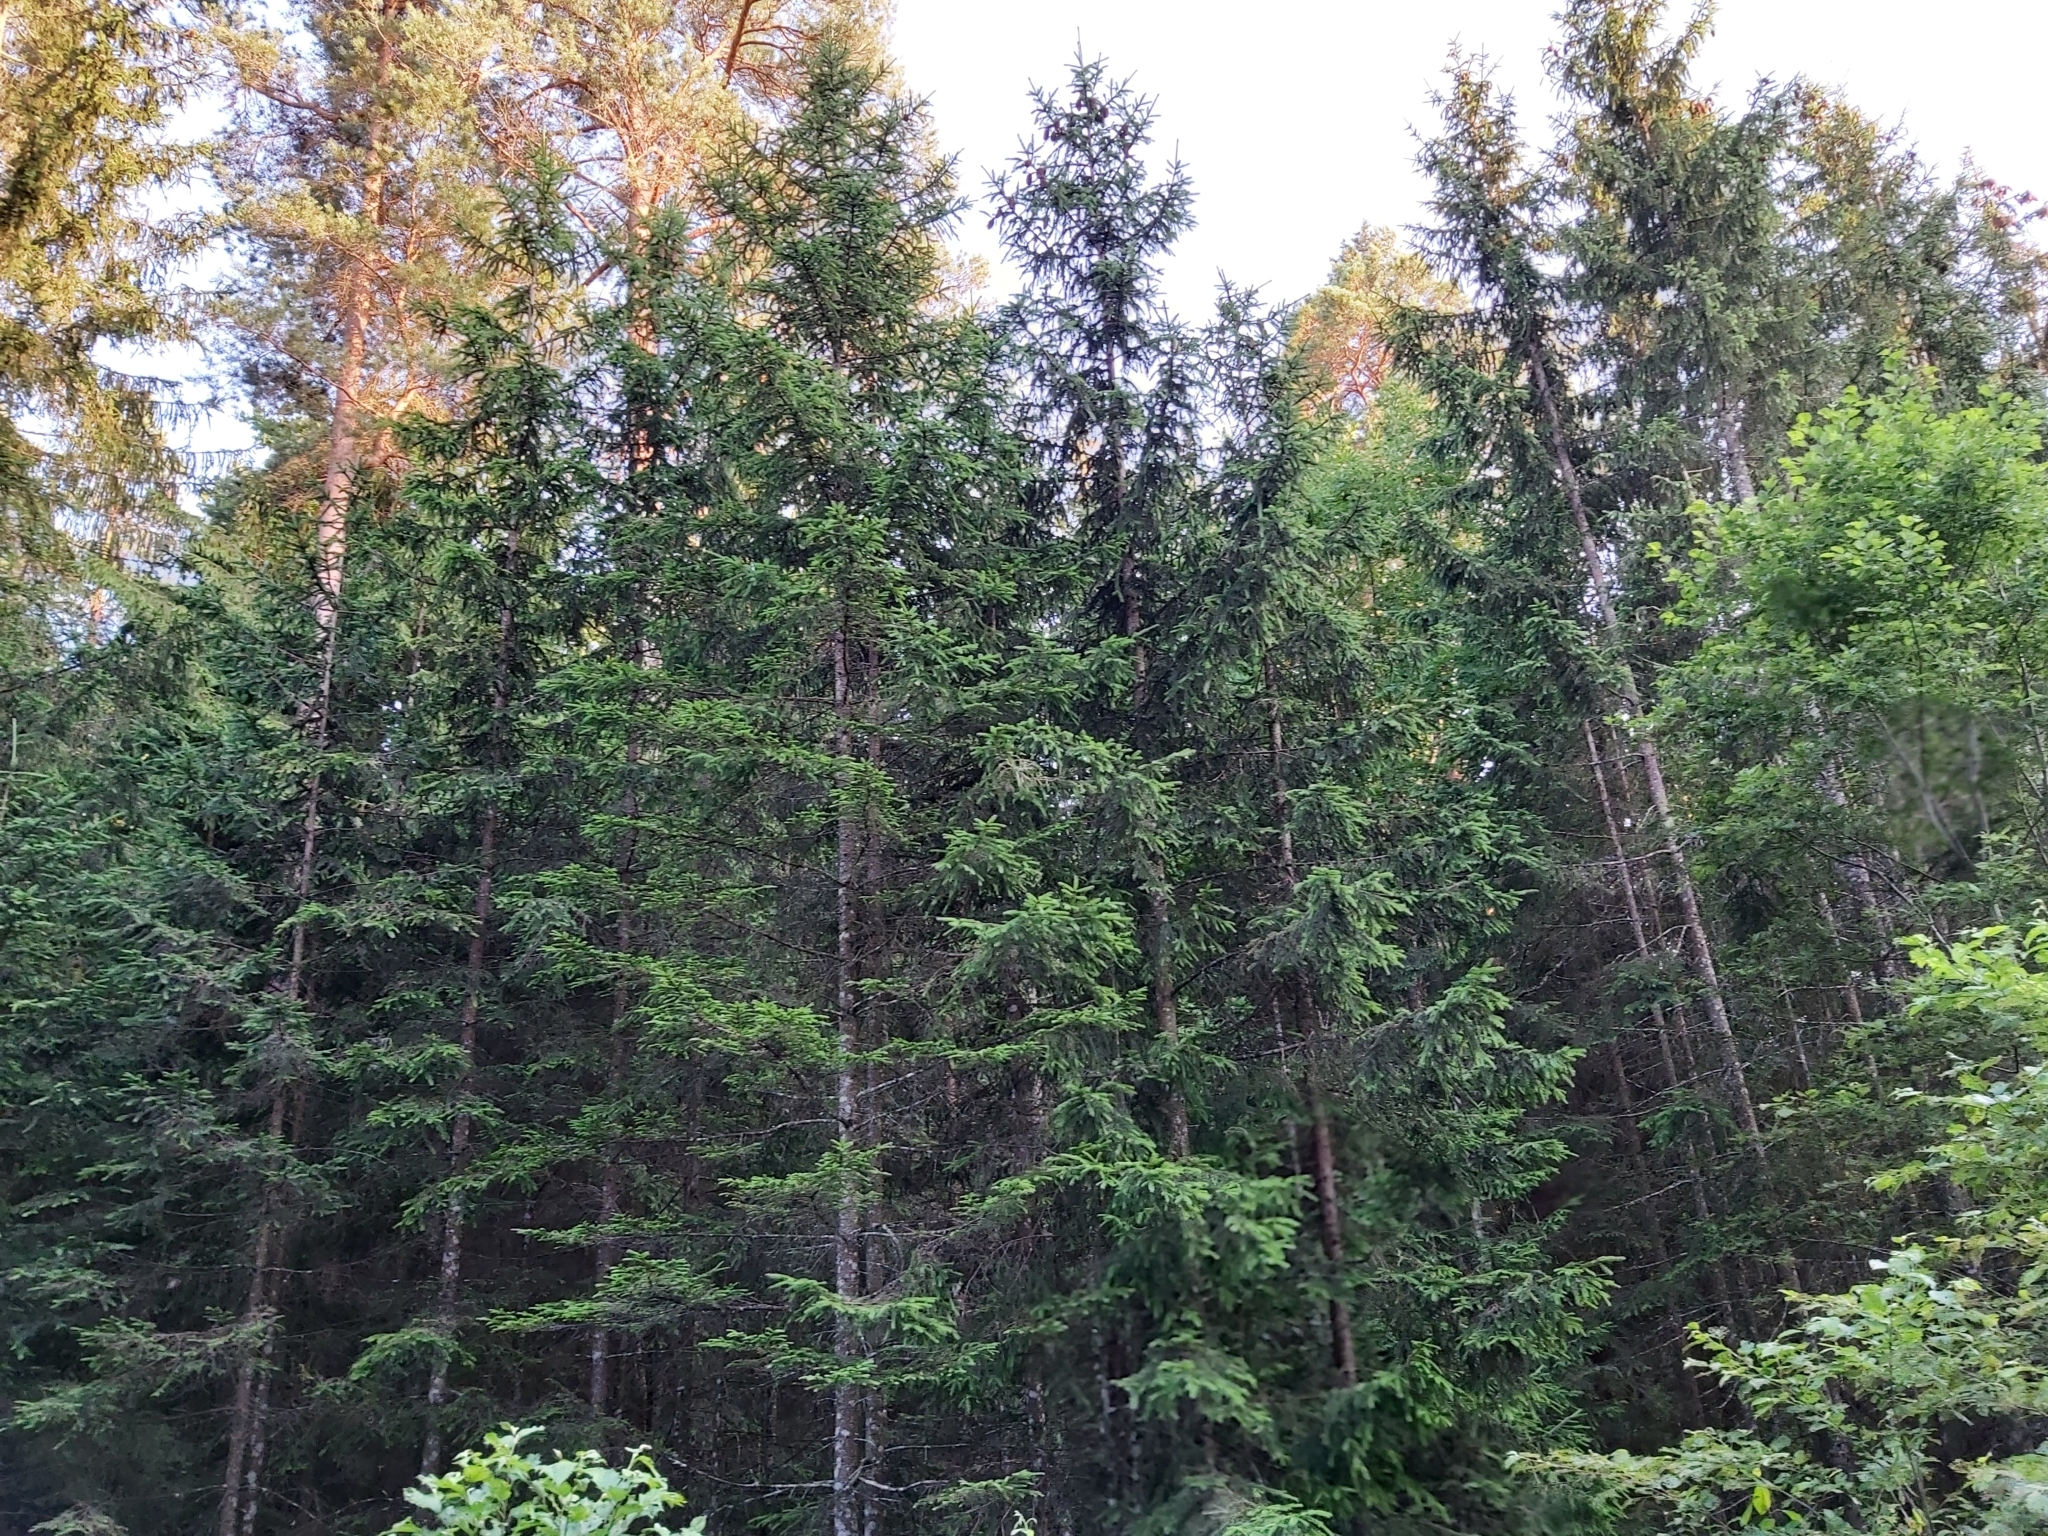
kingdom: Animalia
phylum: Chordata
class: Aves
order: Piciformes
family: Picidae
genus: Dryocopus
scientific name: Dryocopus martius
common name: Black woodpecker
